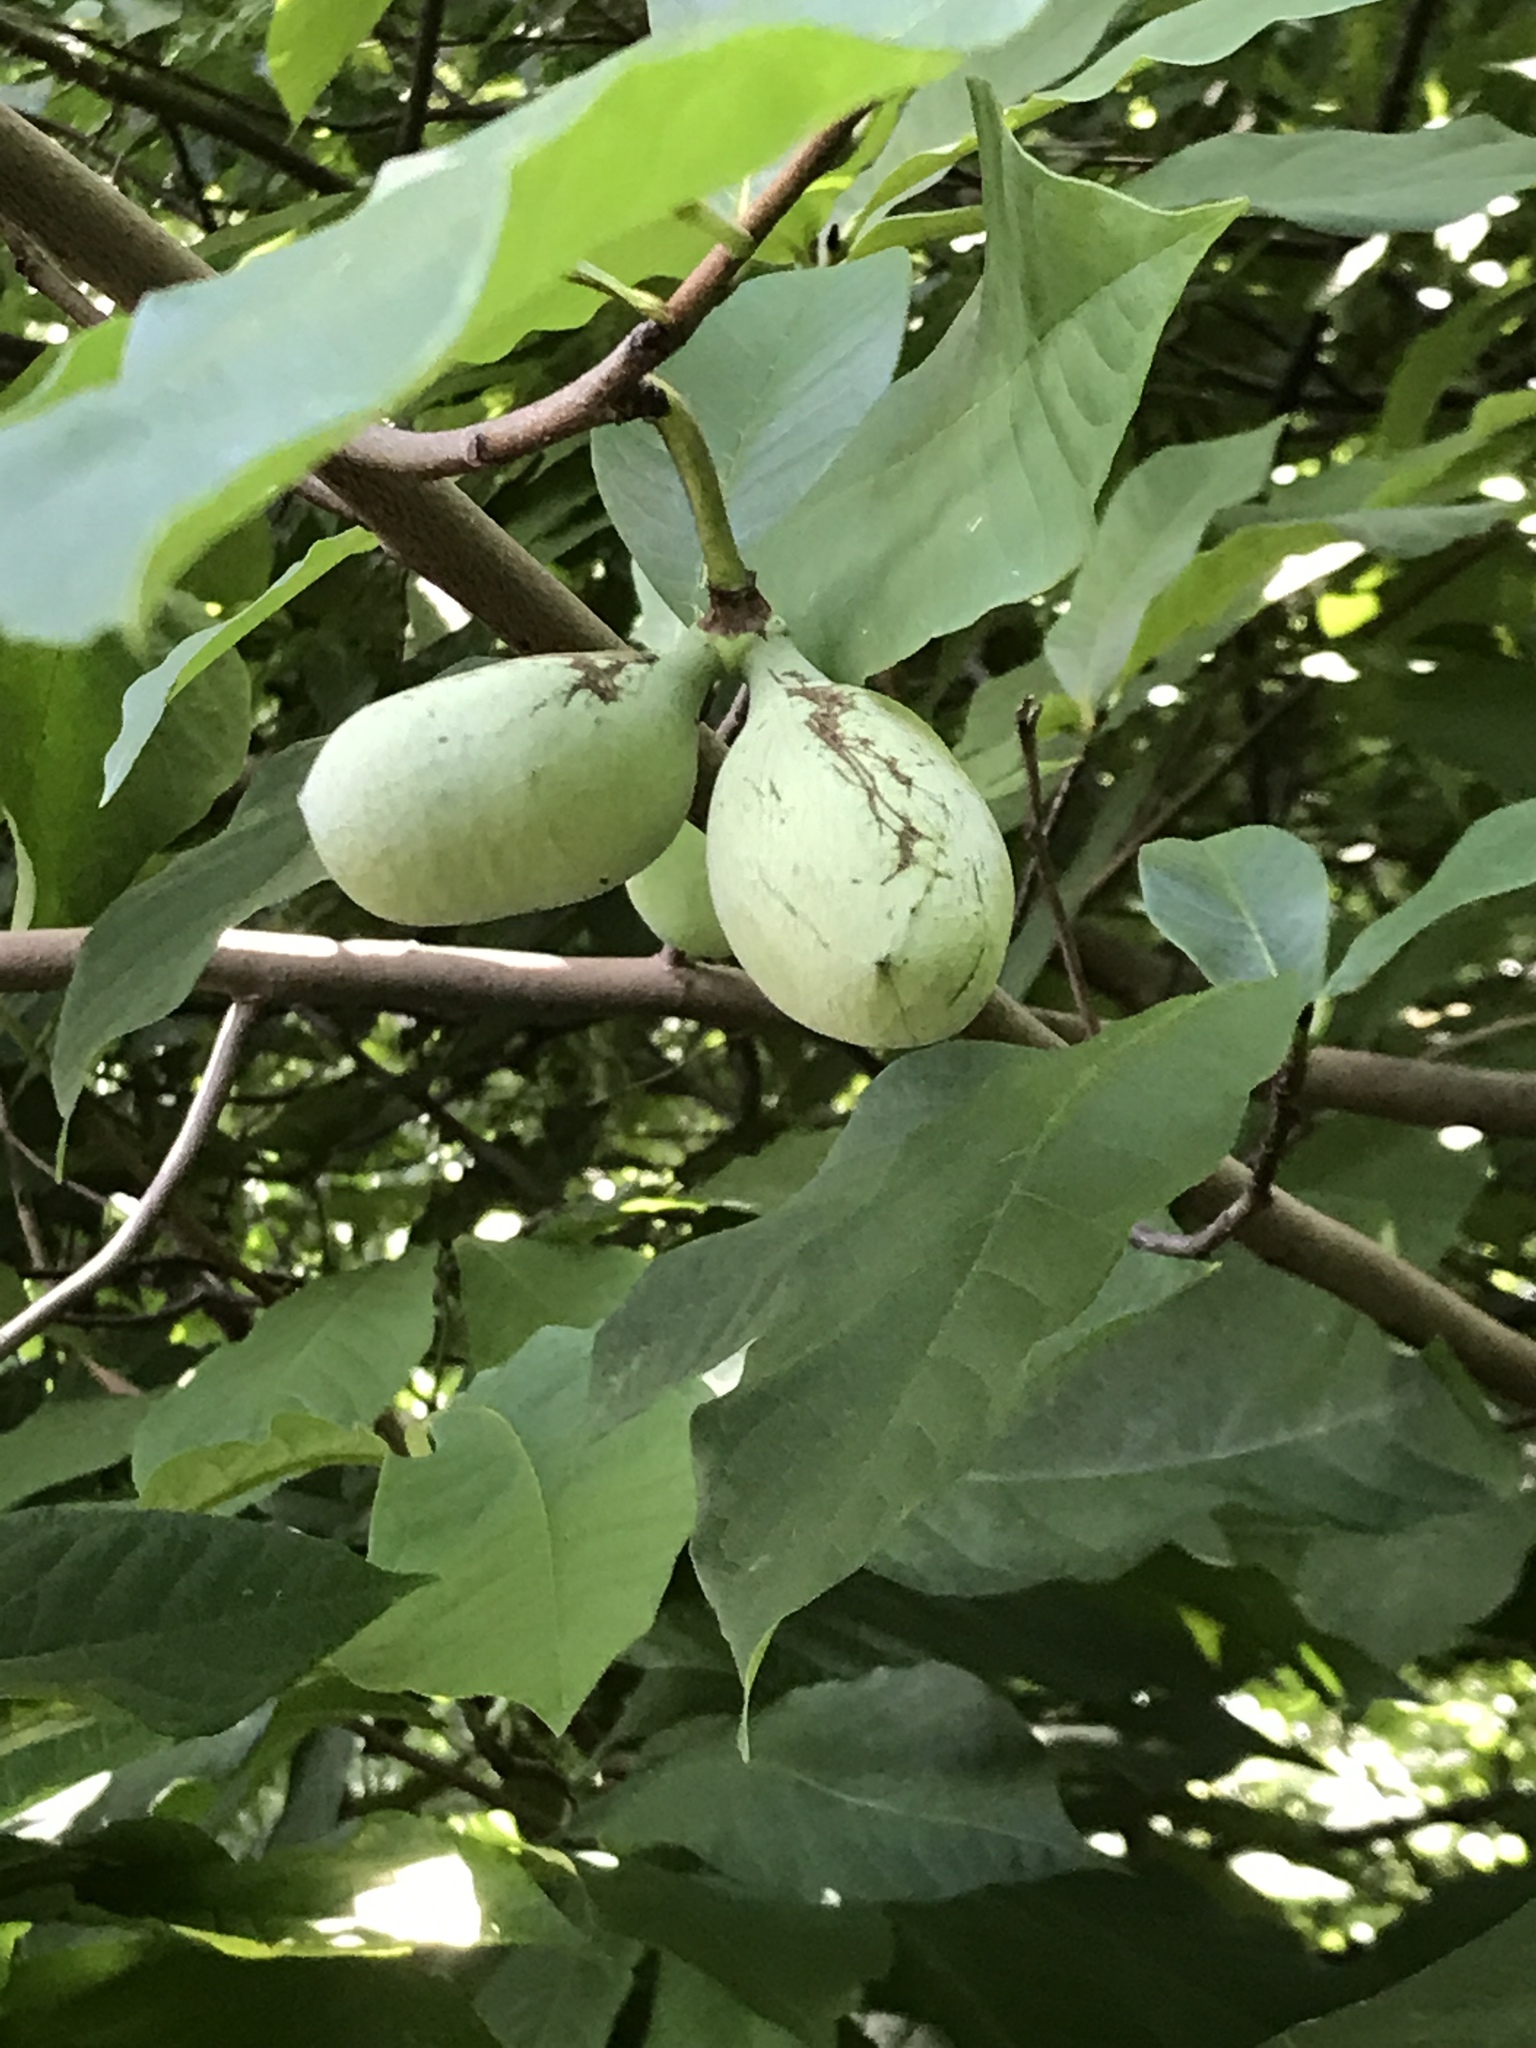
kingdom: Plantae
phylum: Tracheophyta
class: Magnoliopsida
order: Magnoliales
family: Annonaceae
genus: Asimina
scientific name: Asimina triloba
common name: Dog-banana
